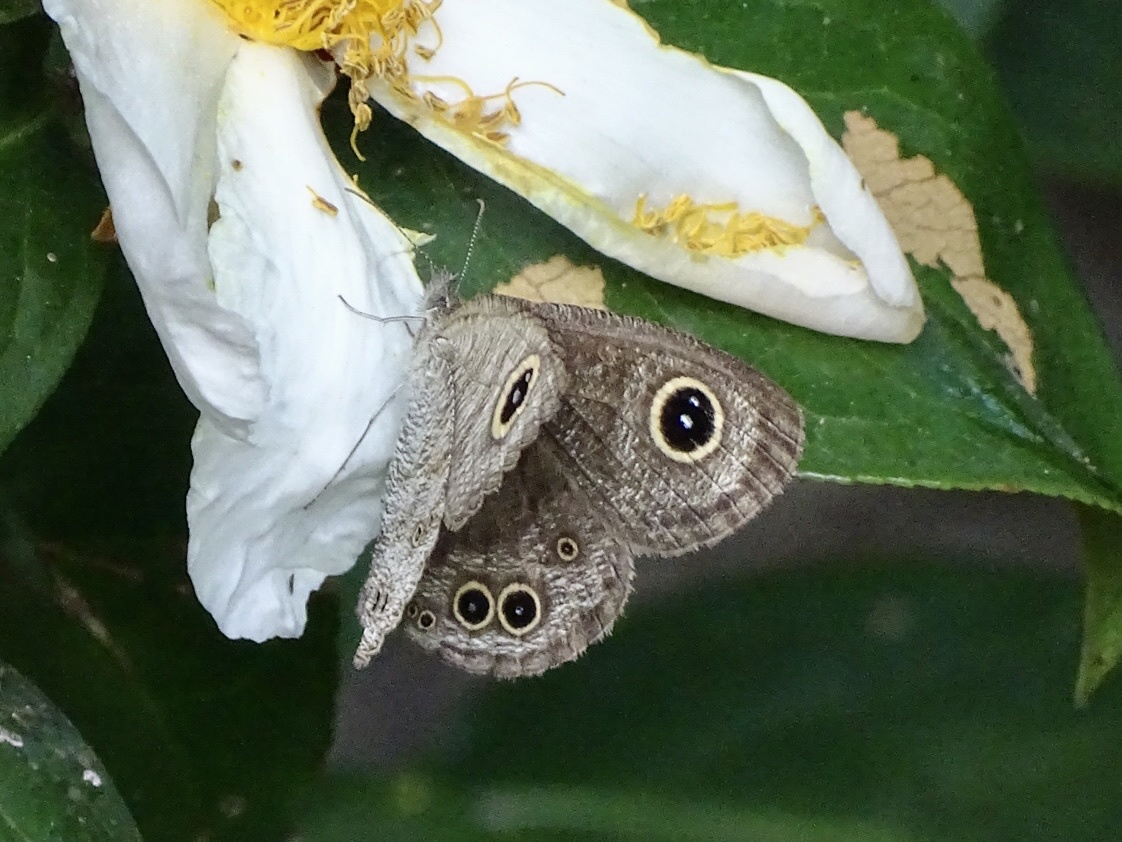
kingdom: Animalia
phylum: Arthropoda
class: Insecta
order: Lepidoptera
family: Nymphalidae
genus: Ypthima
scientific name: Ypthima baldus
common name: Common five-ring
